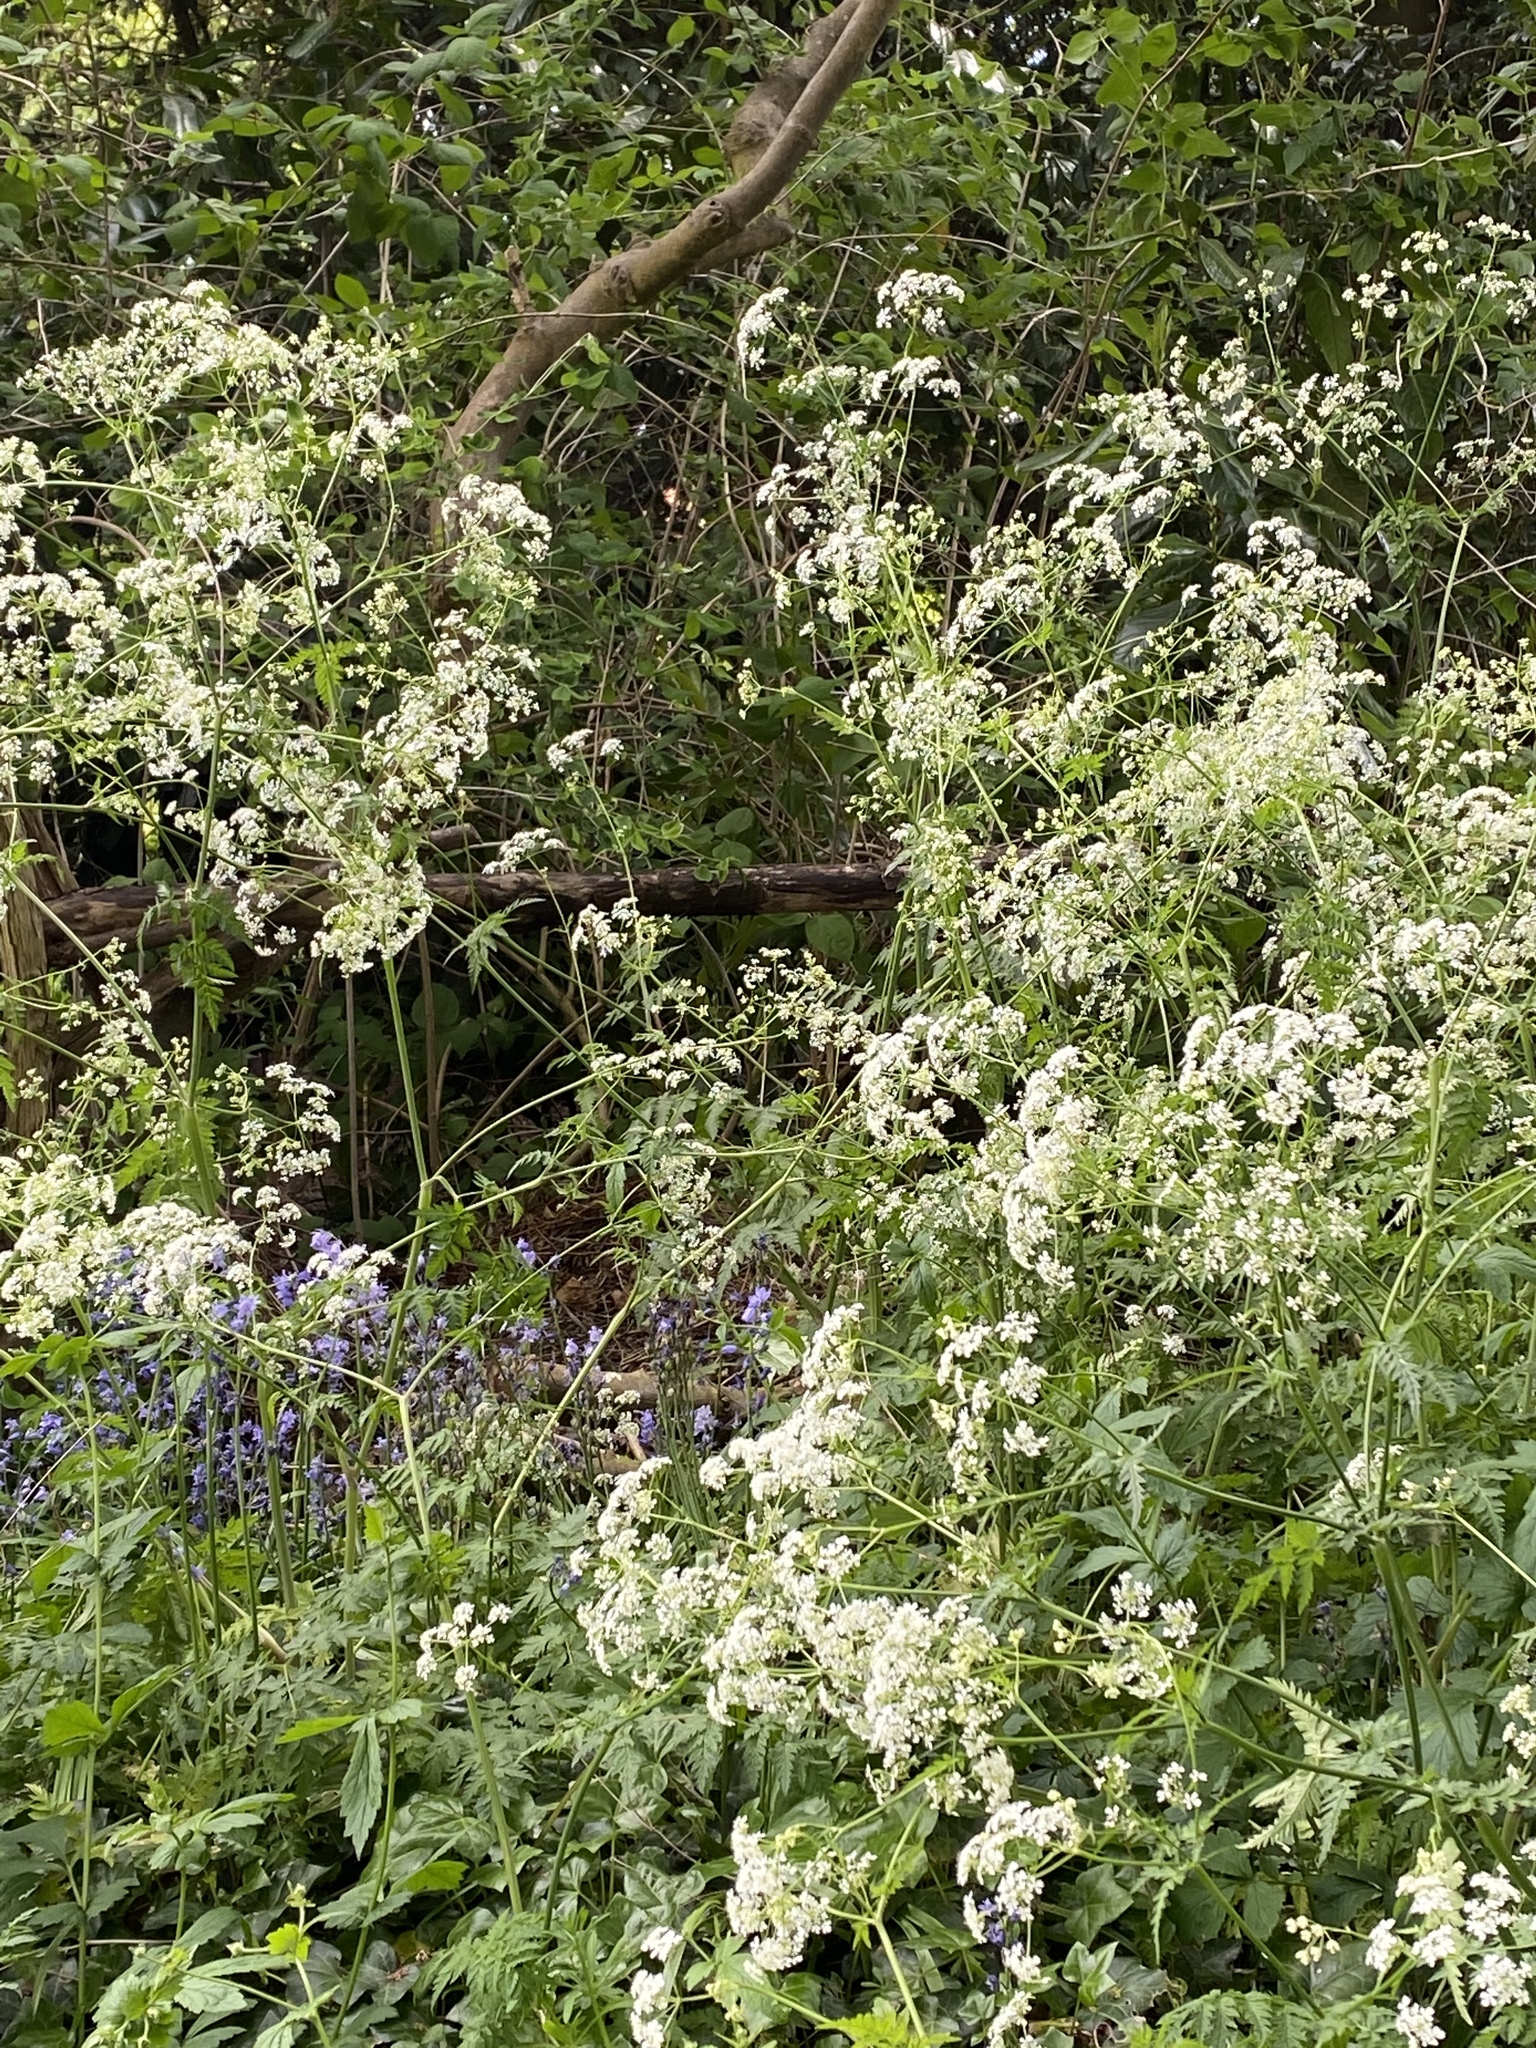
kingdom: Plantae
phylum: Tracheophyta
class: Magnoliopsida
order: Apiales
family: Apiaceae
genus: Anthriscus
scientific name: Anthriscus sylvestris
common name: Cow parsley
